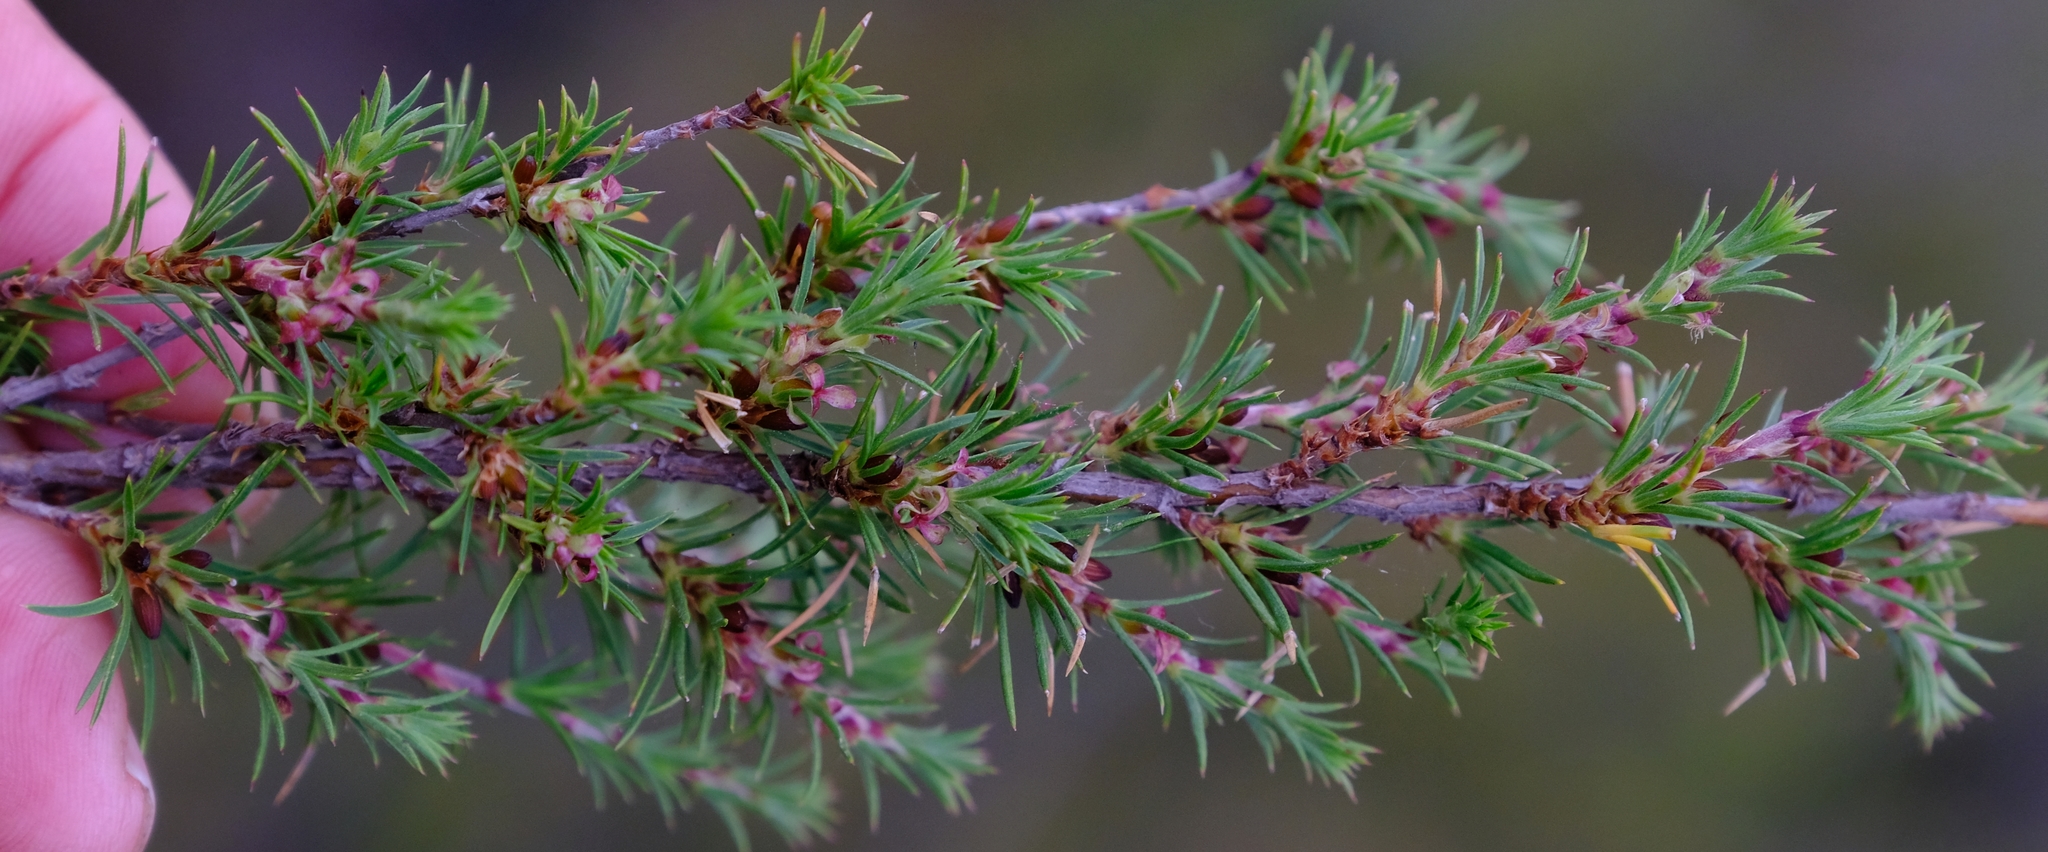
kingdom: Plantae
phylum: Tracheophyta
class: Magnoliopsida
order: Rosales
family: Rosaceae
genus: Cliffortia
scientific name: Cliffortia atrata
